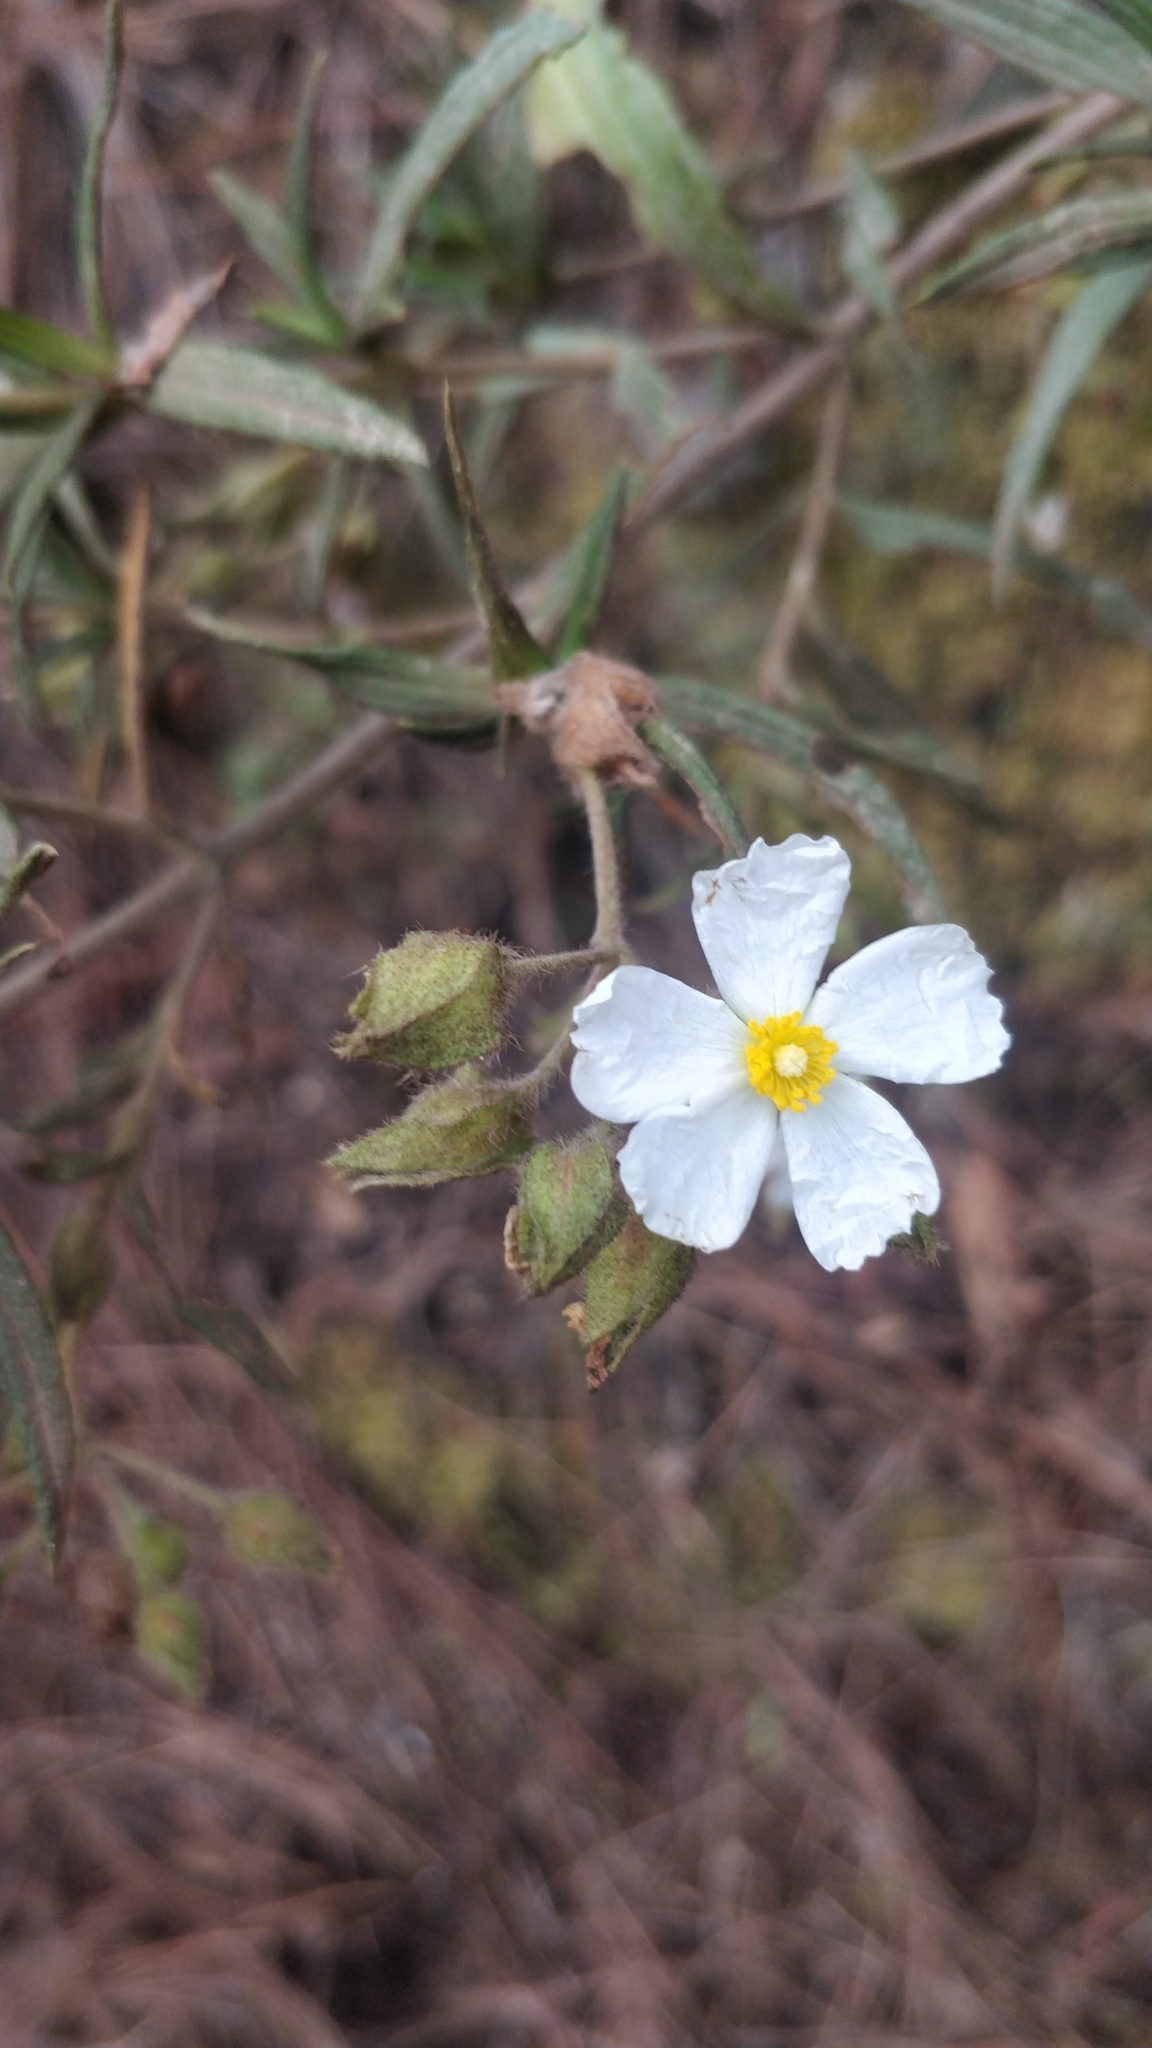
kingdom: Plantae
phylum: Tracheophyta
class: Magnoliopsida
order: Malvales
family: Cistaceae
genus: Cistus
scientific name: Cistus monspeliensis
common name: Montpelier cistus
